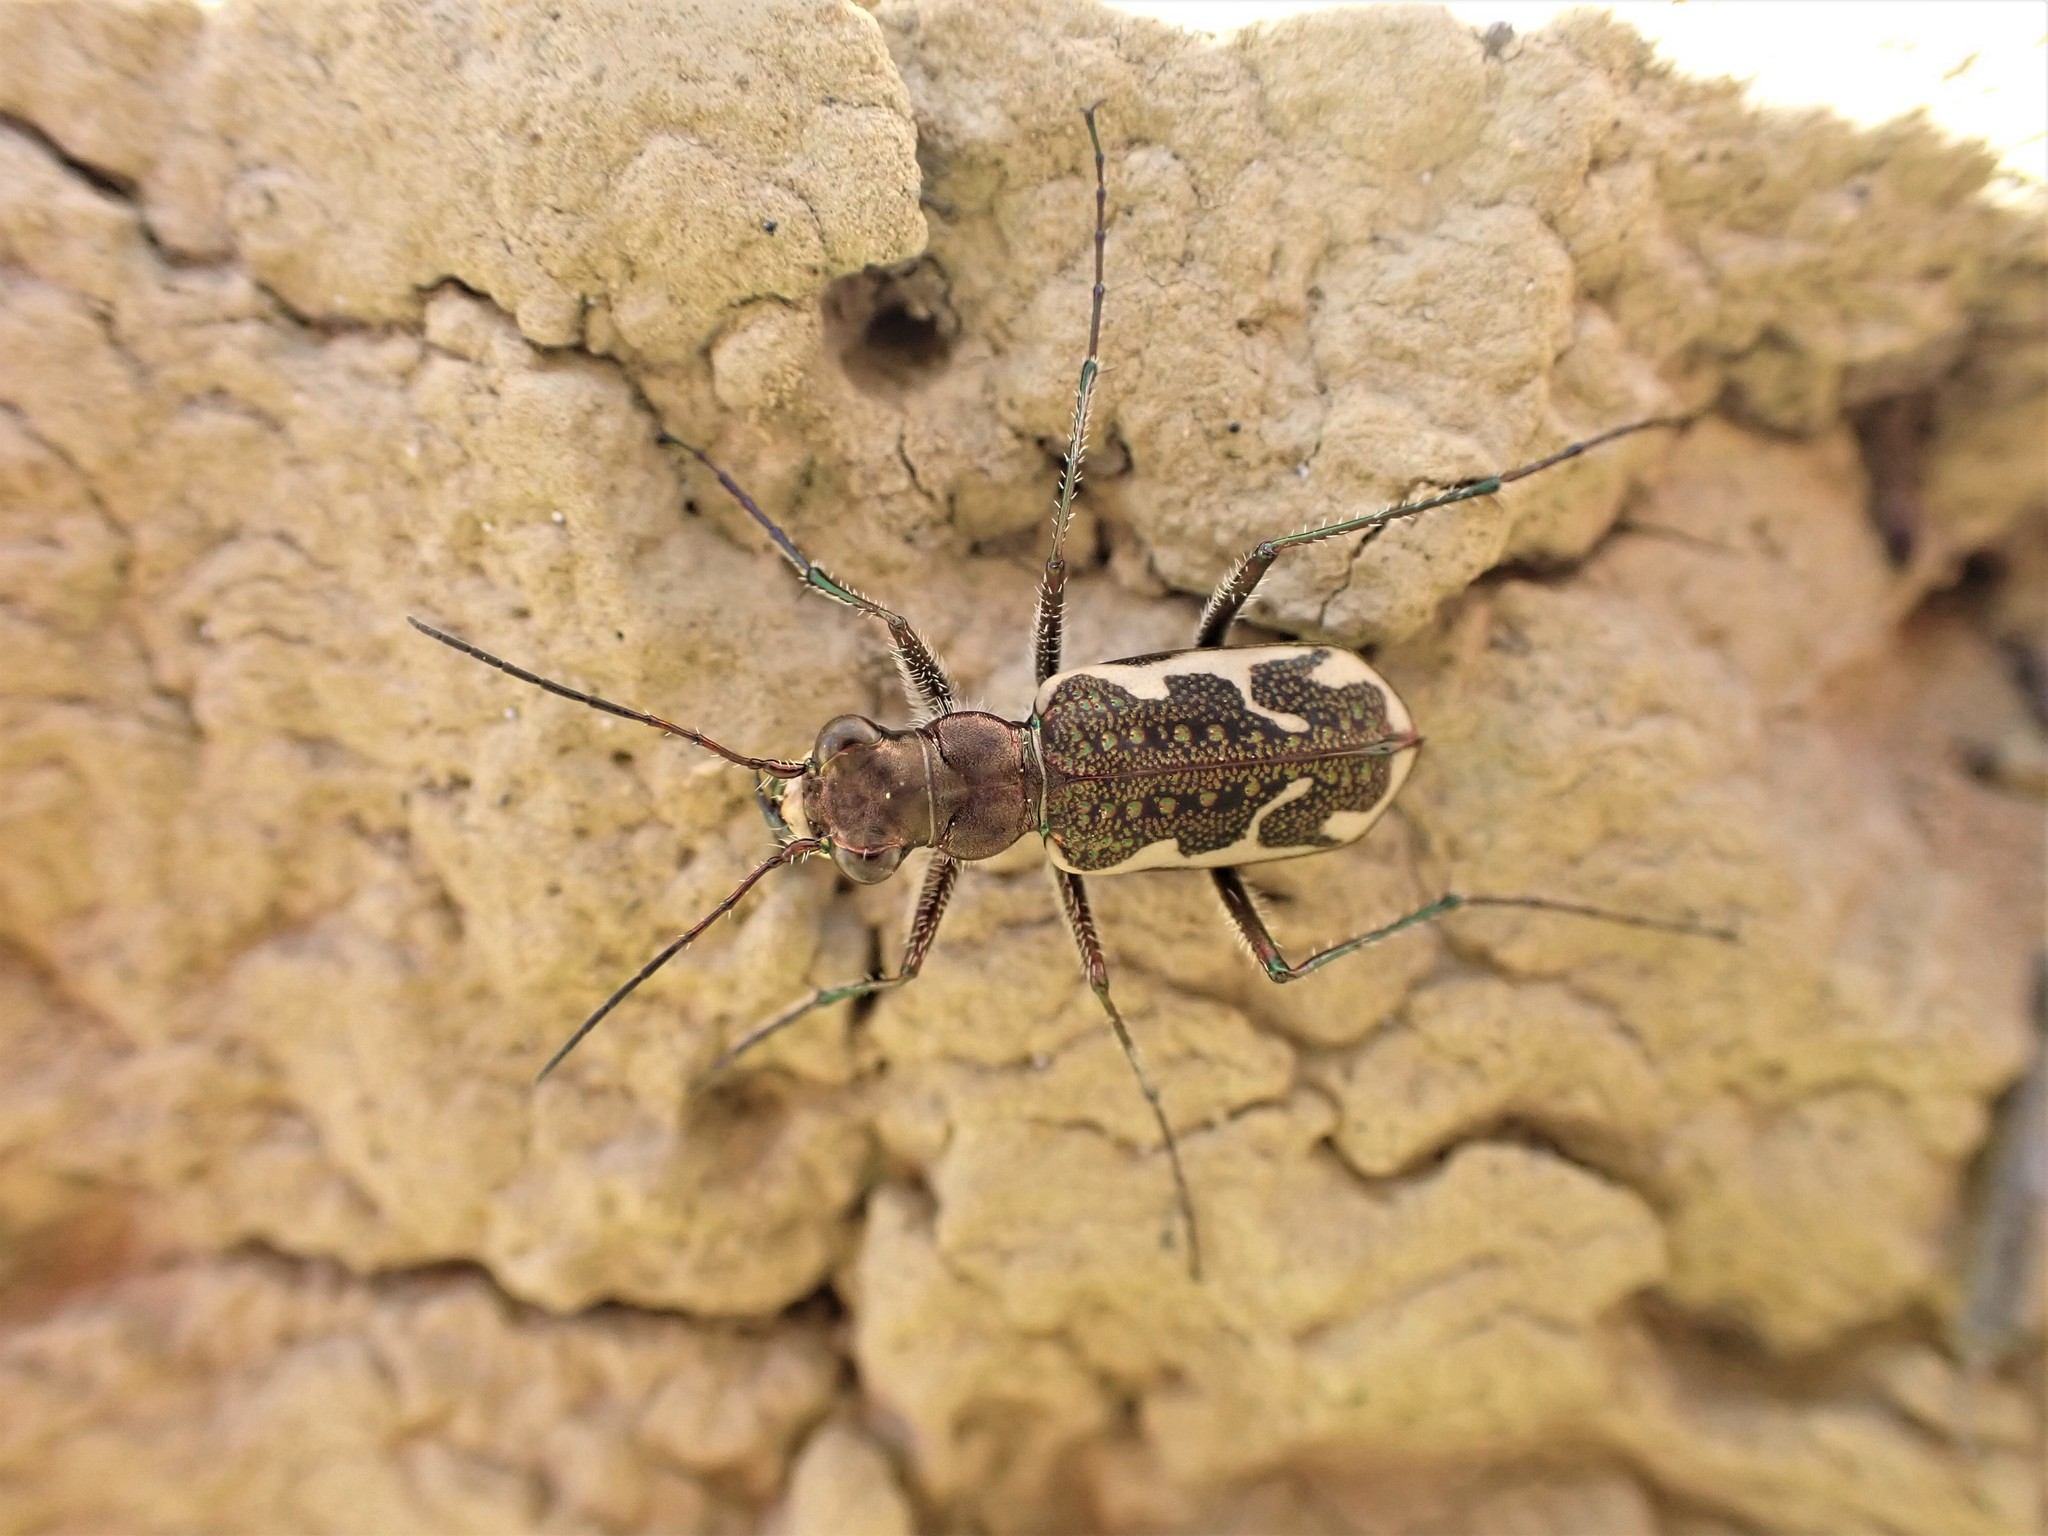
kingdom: Animalia
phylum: Arthropoda
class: Insecta
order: Coleoptera
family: Carabidae
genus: Neocicindela
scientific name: Neocicindela tuberculata
